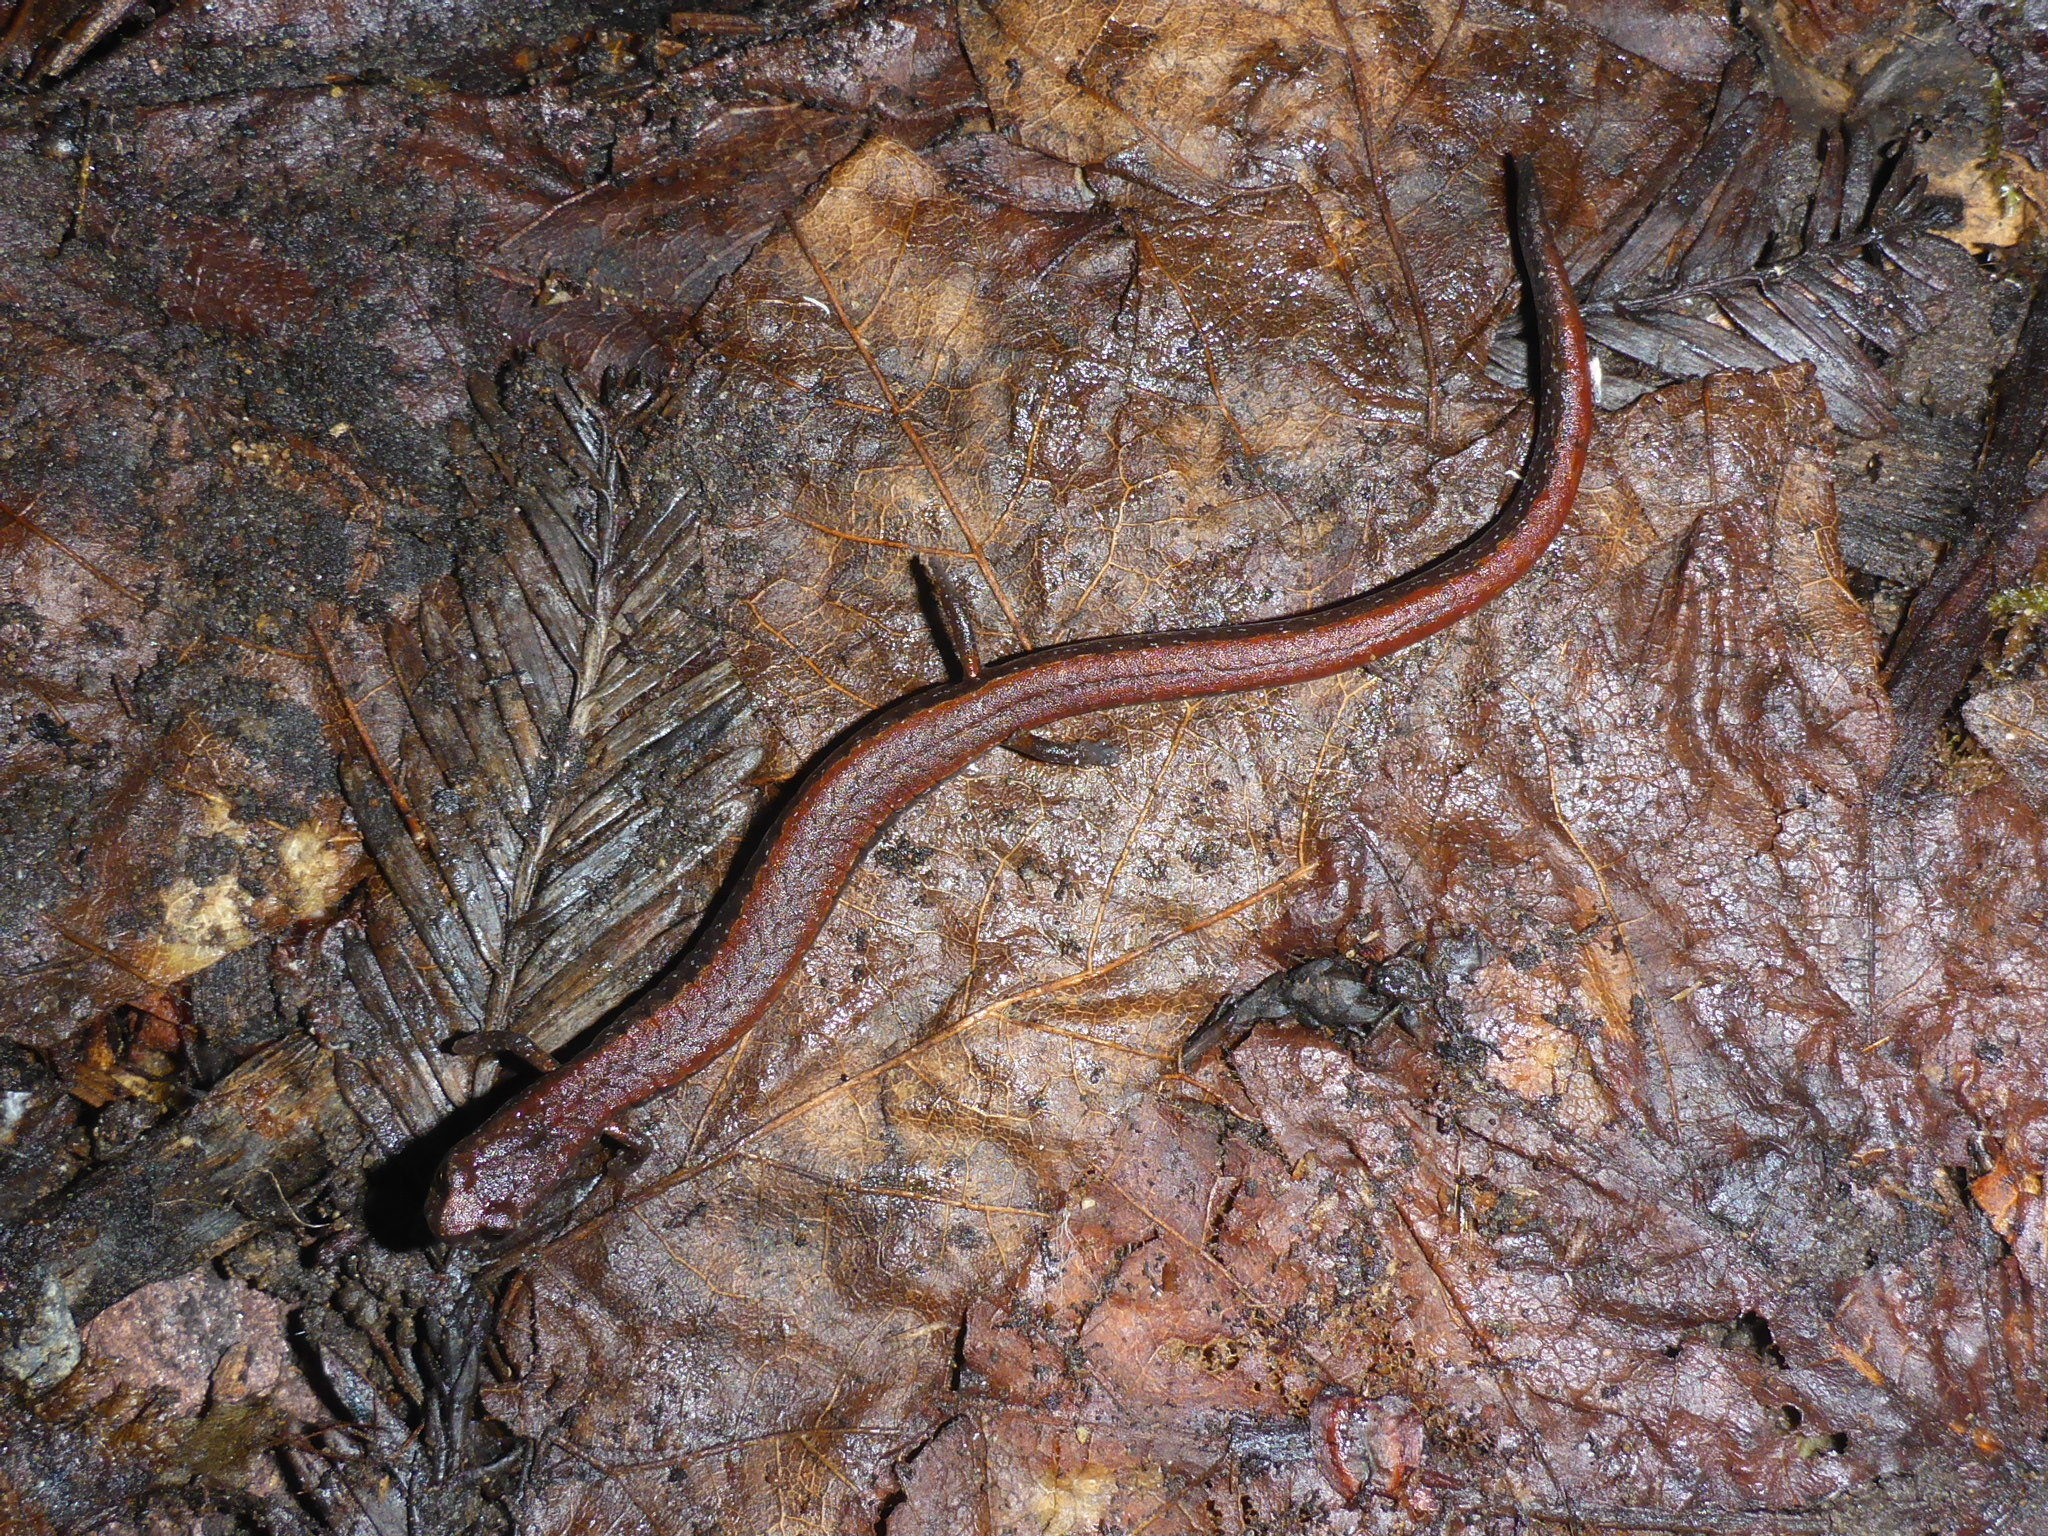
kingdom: Animalia
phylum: Chordata
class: Amphibia
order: Caudata
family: Plethodontidae
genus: Batrachoseps
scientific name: Batrachoseps attenuatus
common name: California slender salamander
